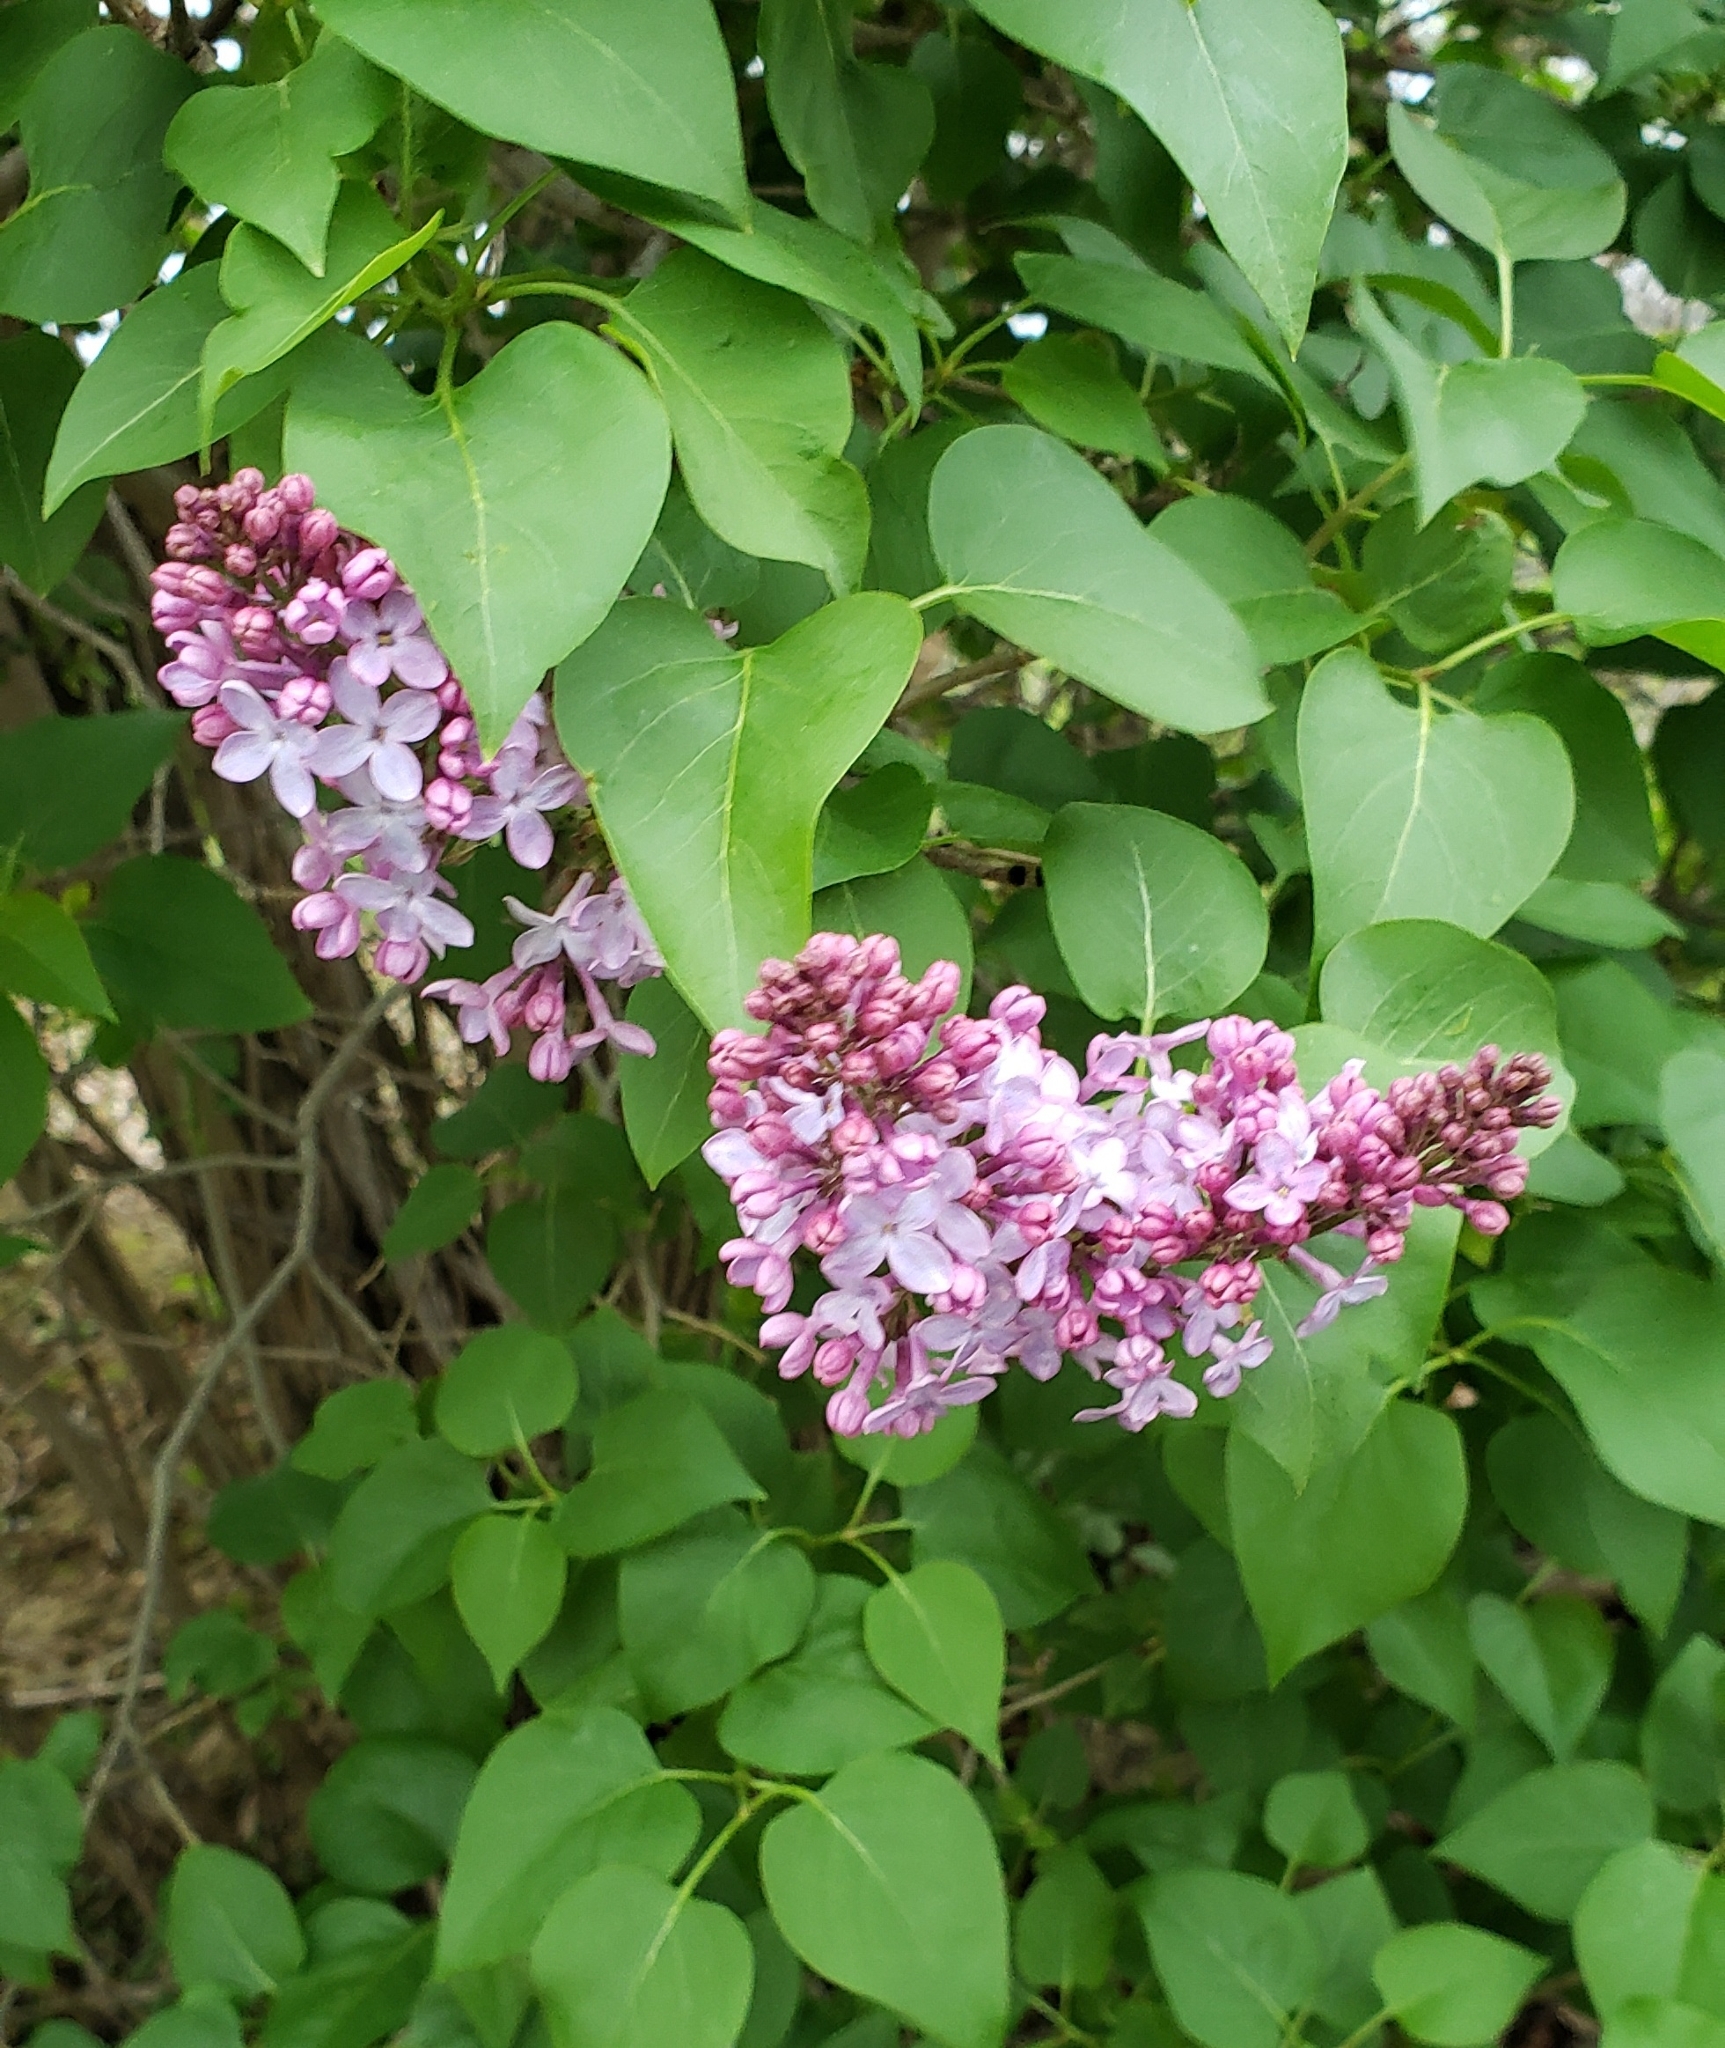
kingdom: Plantae
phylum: Tracheophyta
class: Magnoliopsida
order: Lamiales
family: Oleaceae
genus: Syringa
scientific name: Syringa vulgaris
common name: Common lilac
